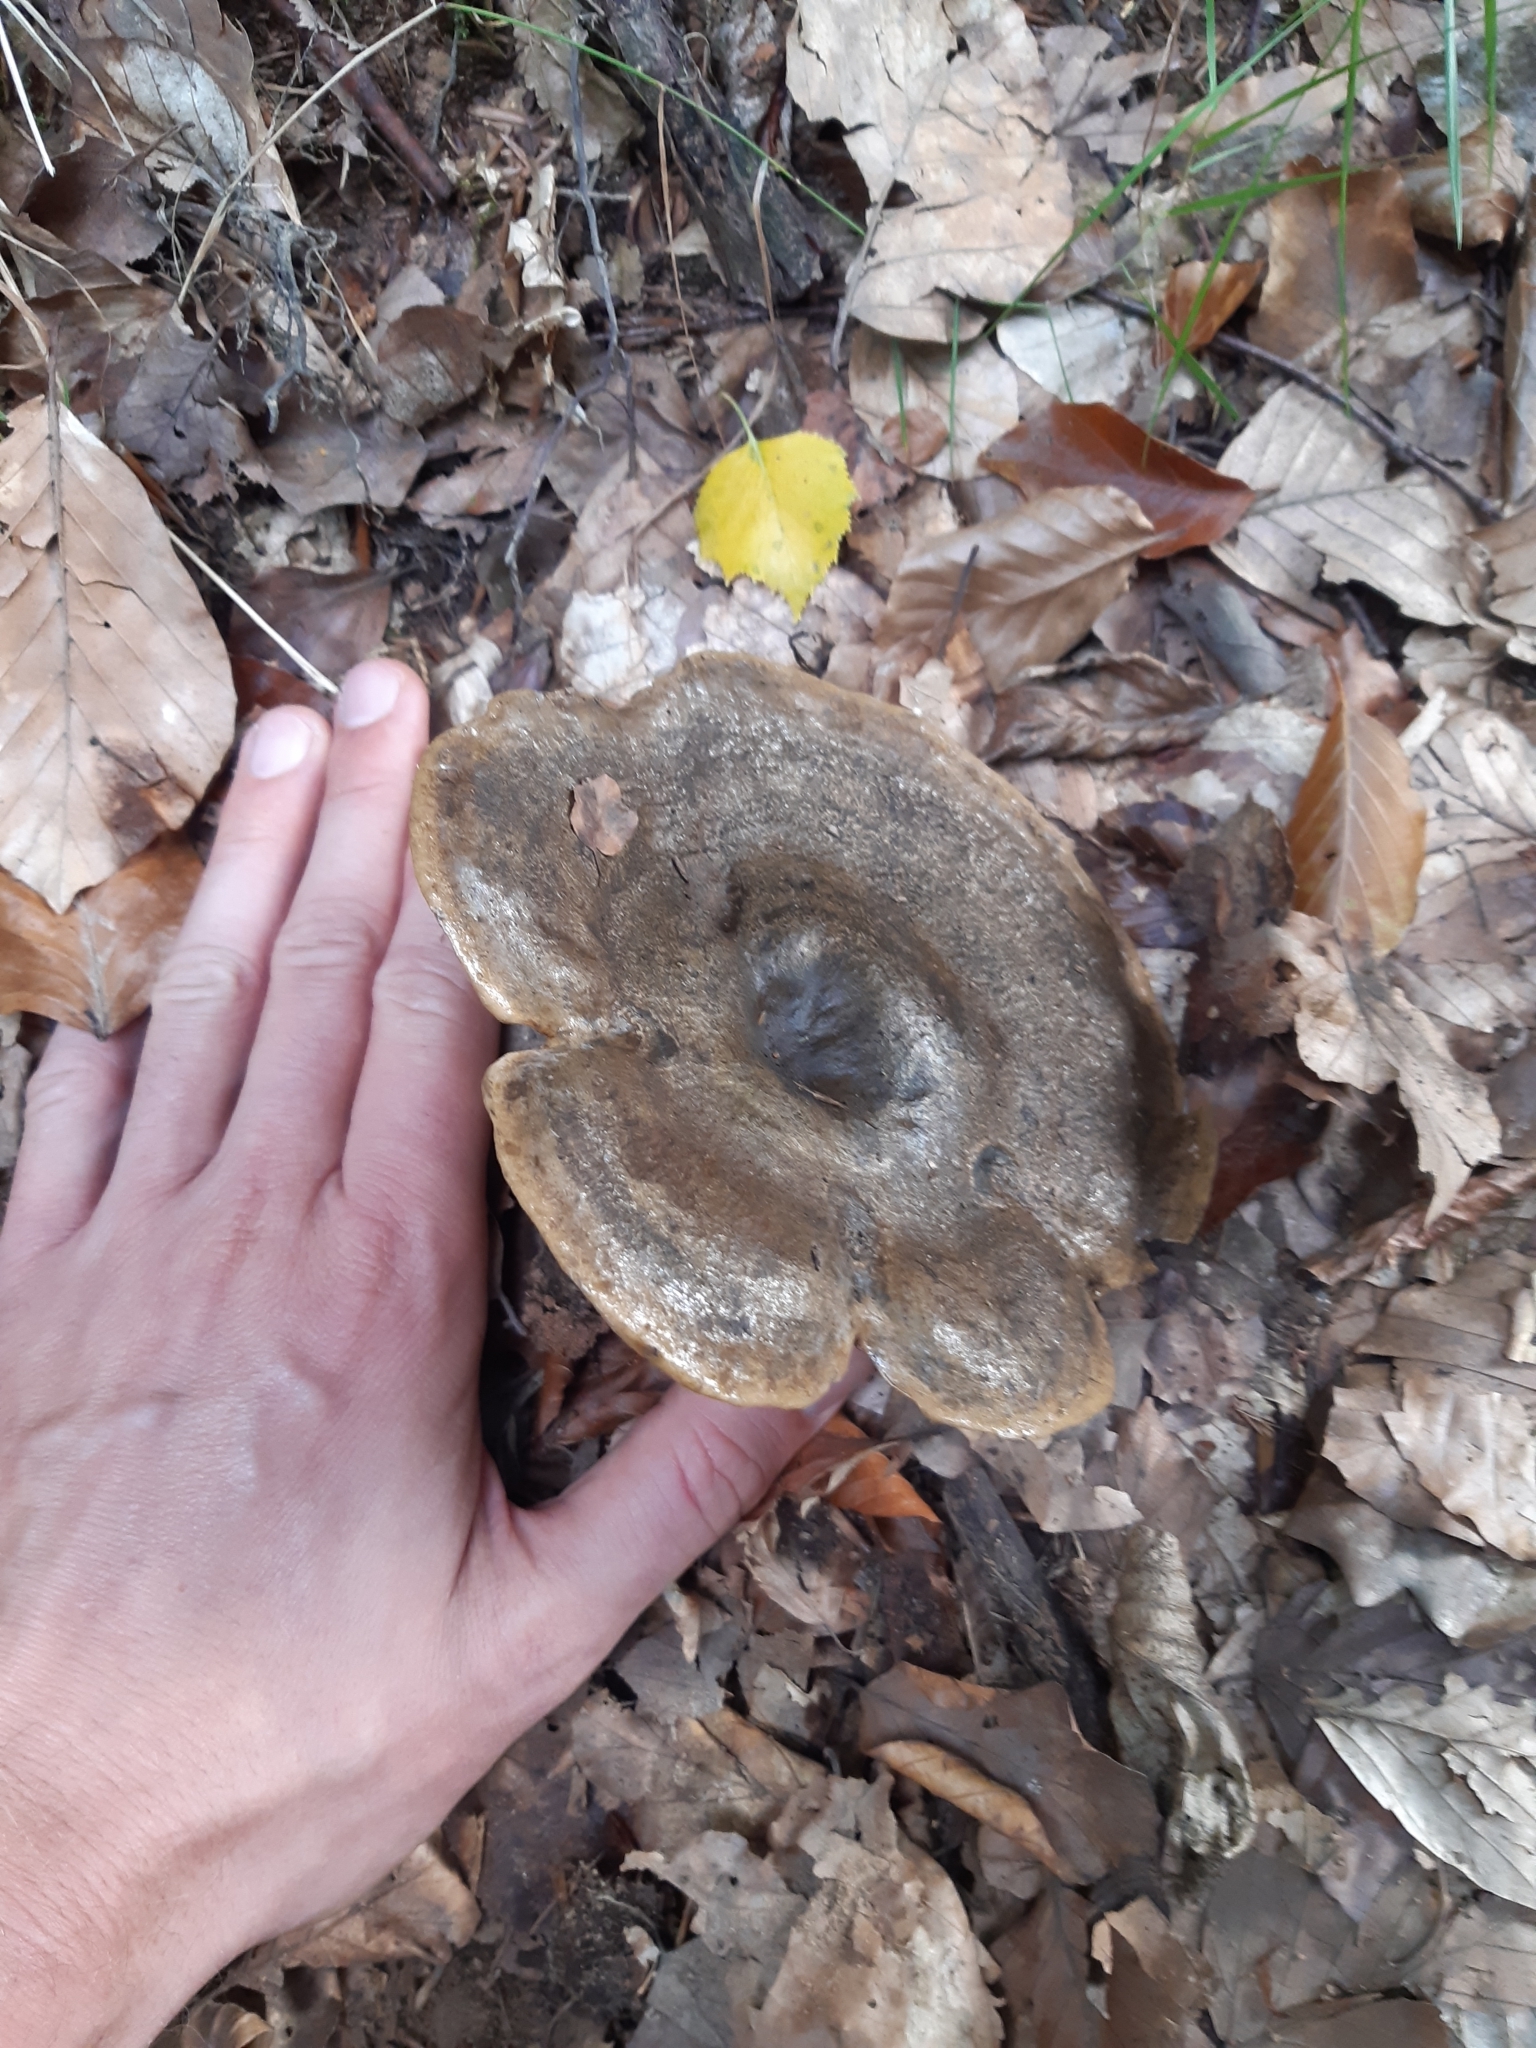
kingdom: Fungi
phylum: Basidiomycota
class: Agaricomycetes
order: Russulales
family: Russulaceae
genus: Lactarius
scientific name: Lactarius turpis
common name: Ugly milk-cap
